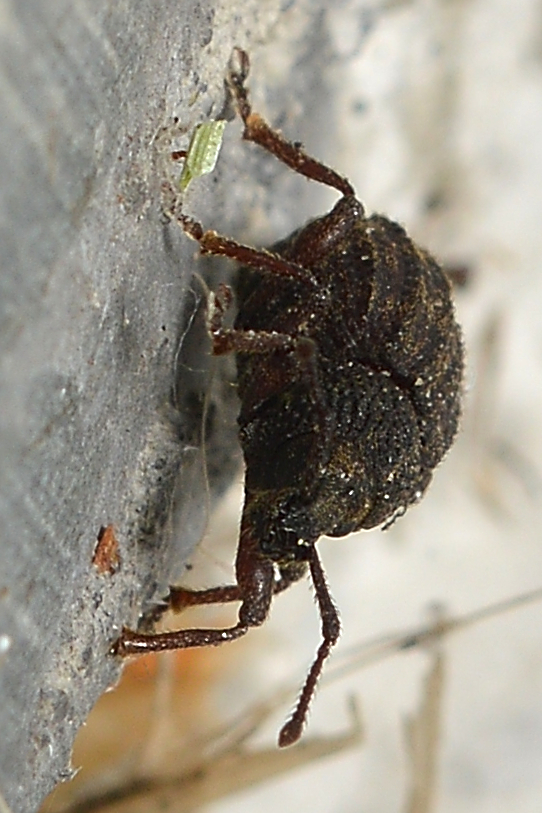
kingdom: Animalia
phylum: Arthropoda
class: Insecta
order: Coleoptera
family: Curculionidae
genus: Otiorhynchus
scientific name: Otiorhynchus porcatus
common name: Weevil
